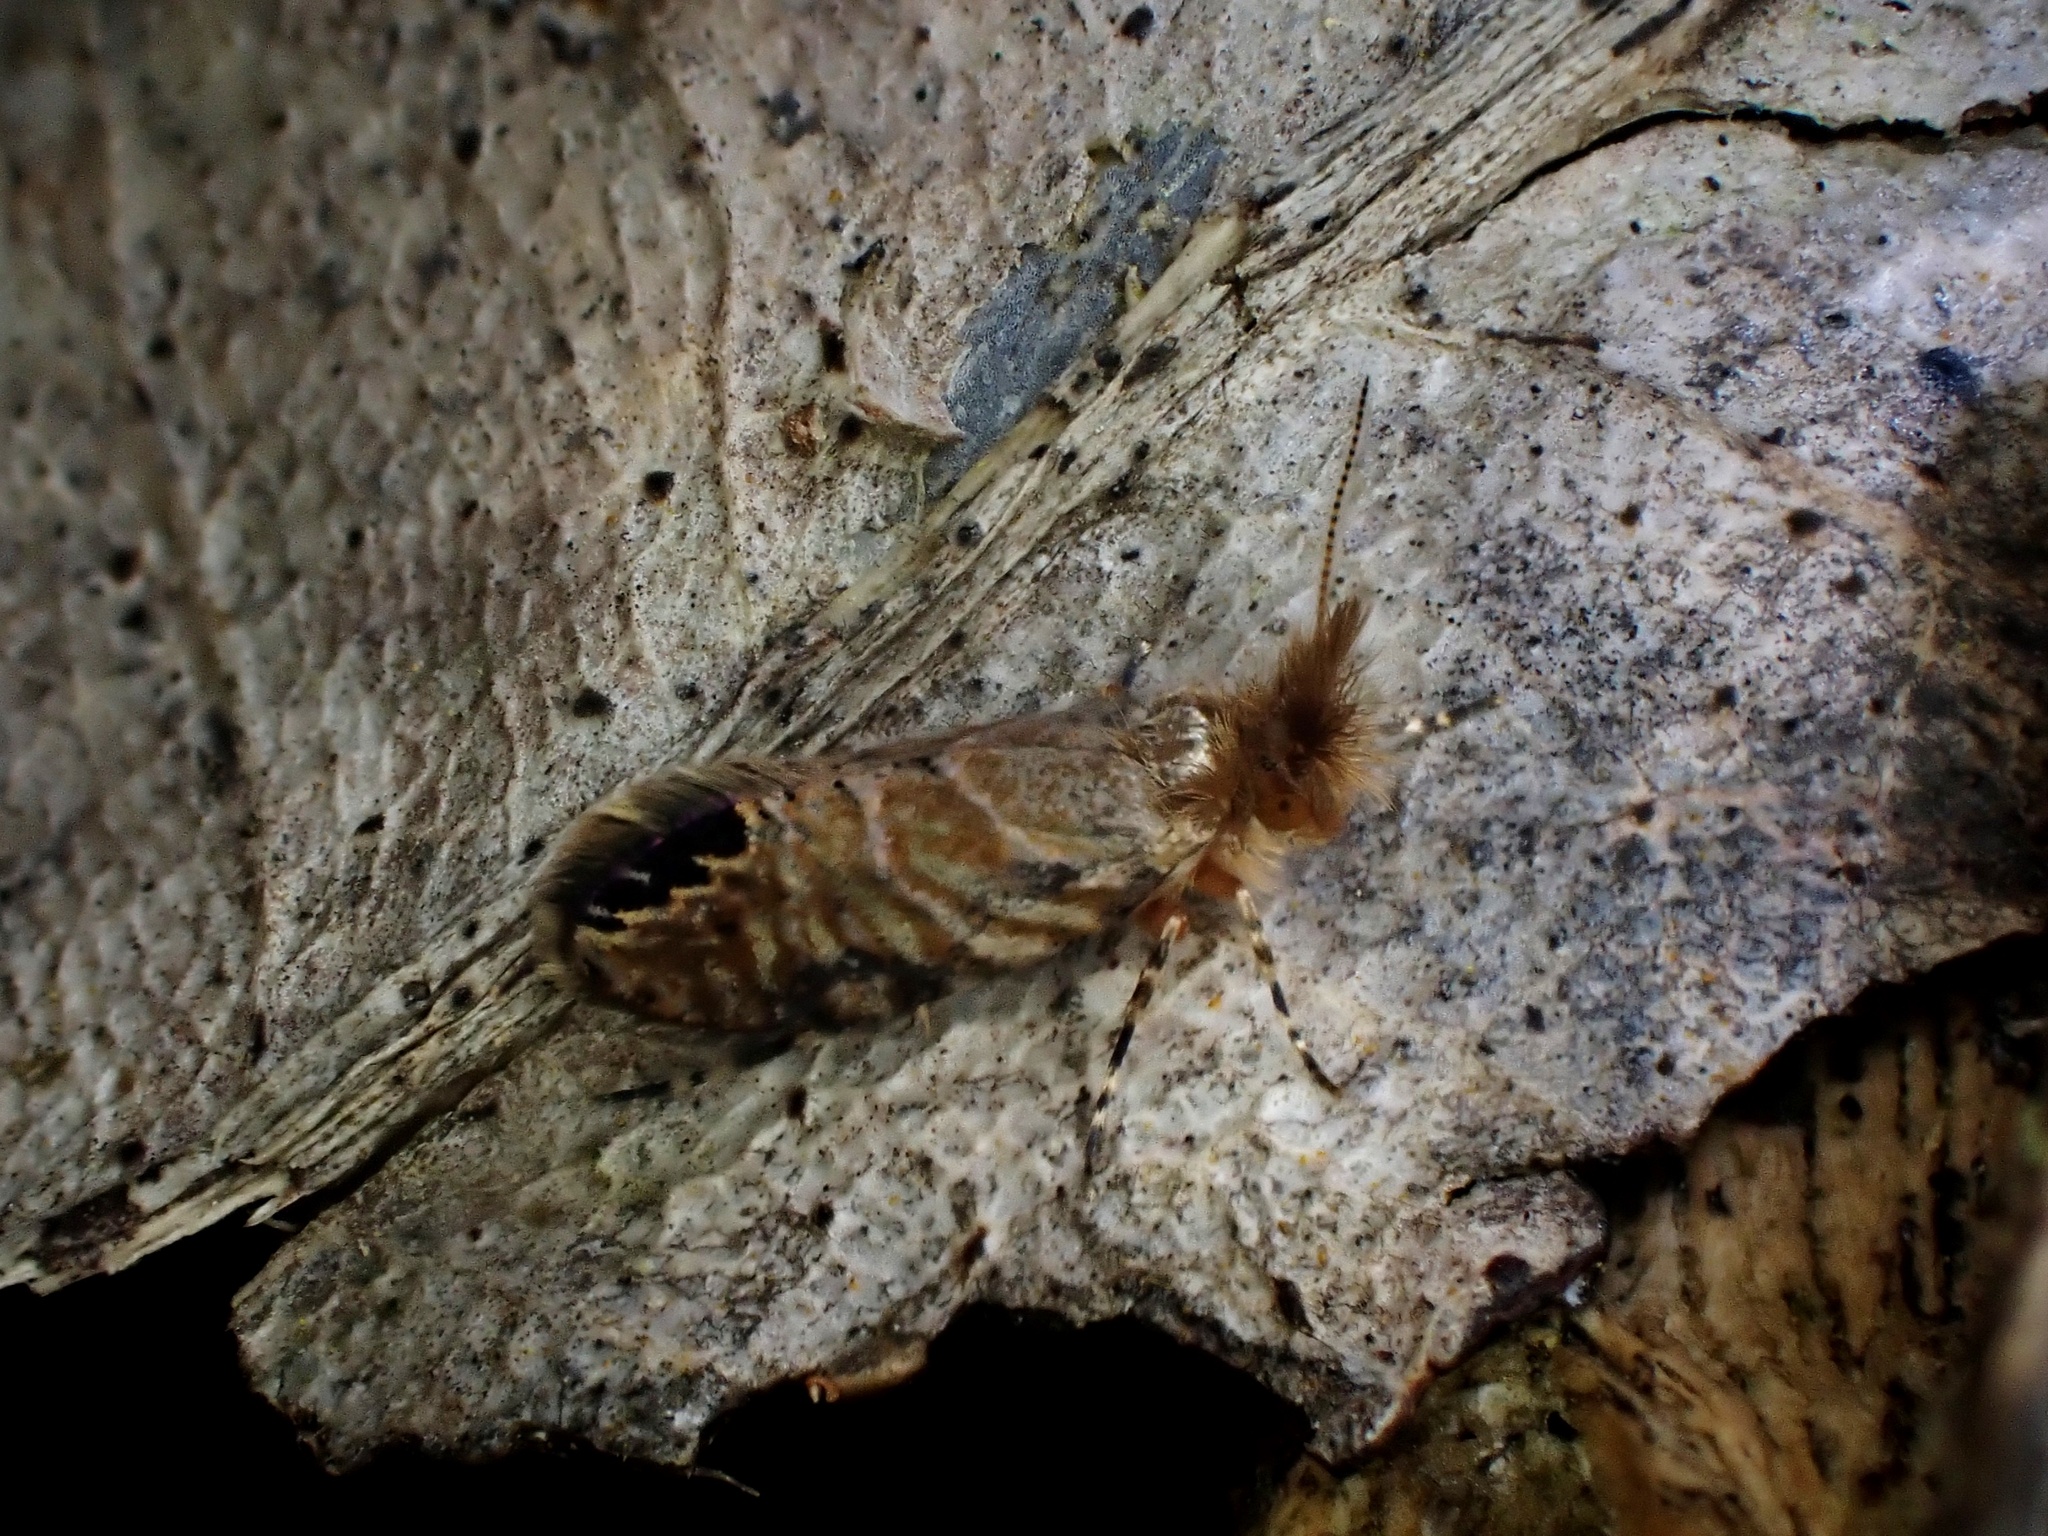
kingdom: Animalia
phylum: Arthropoda
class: Insecta
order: Lepidoptera
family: Micropterigidae
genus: Sabatinca
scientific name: Sabatinca calliarcha
